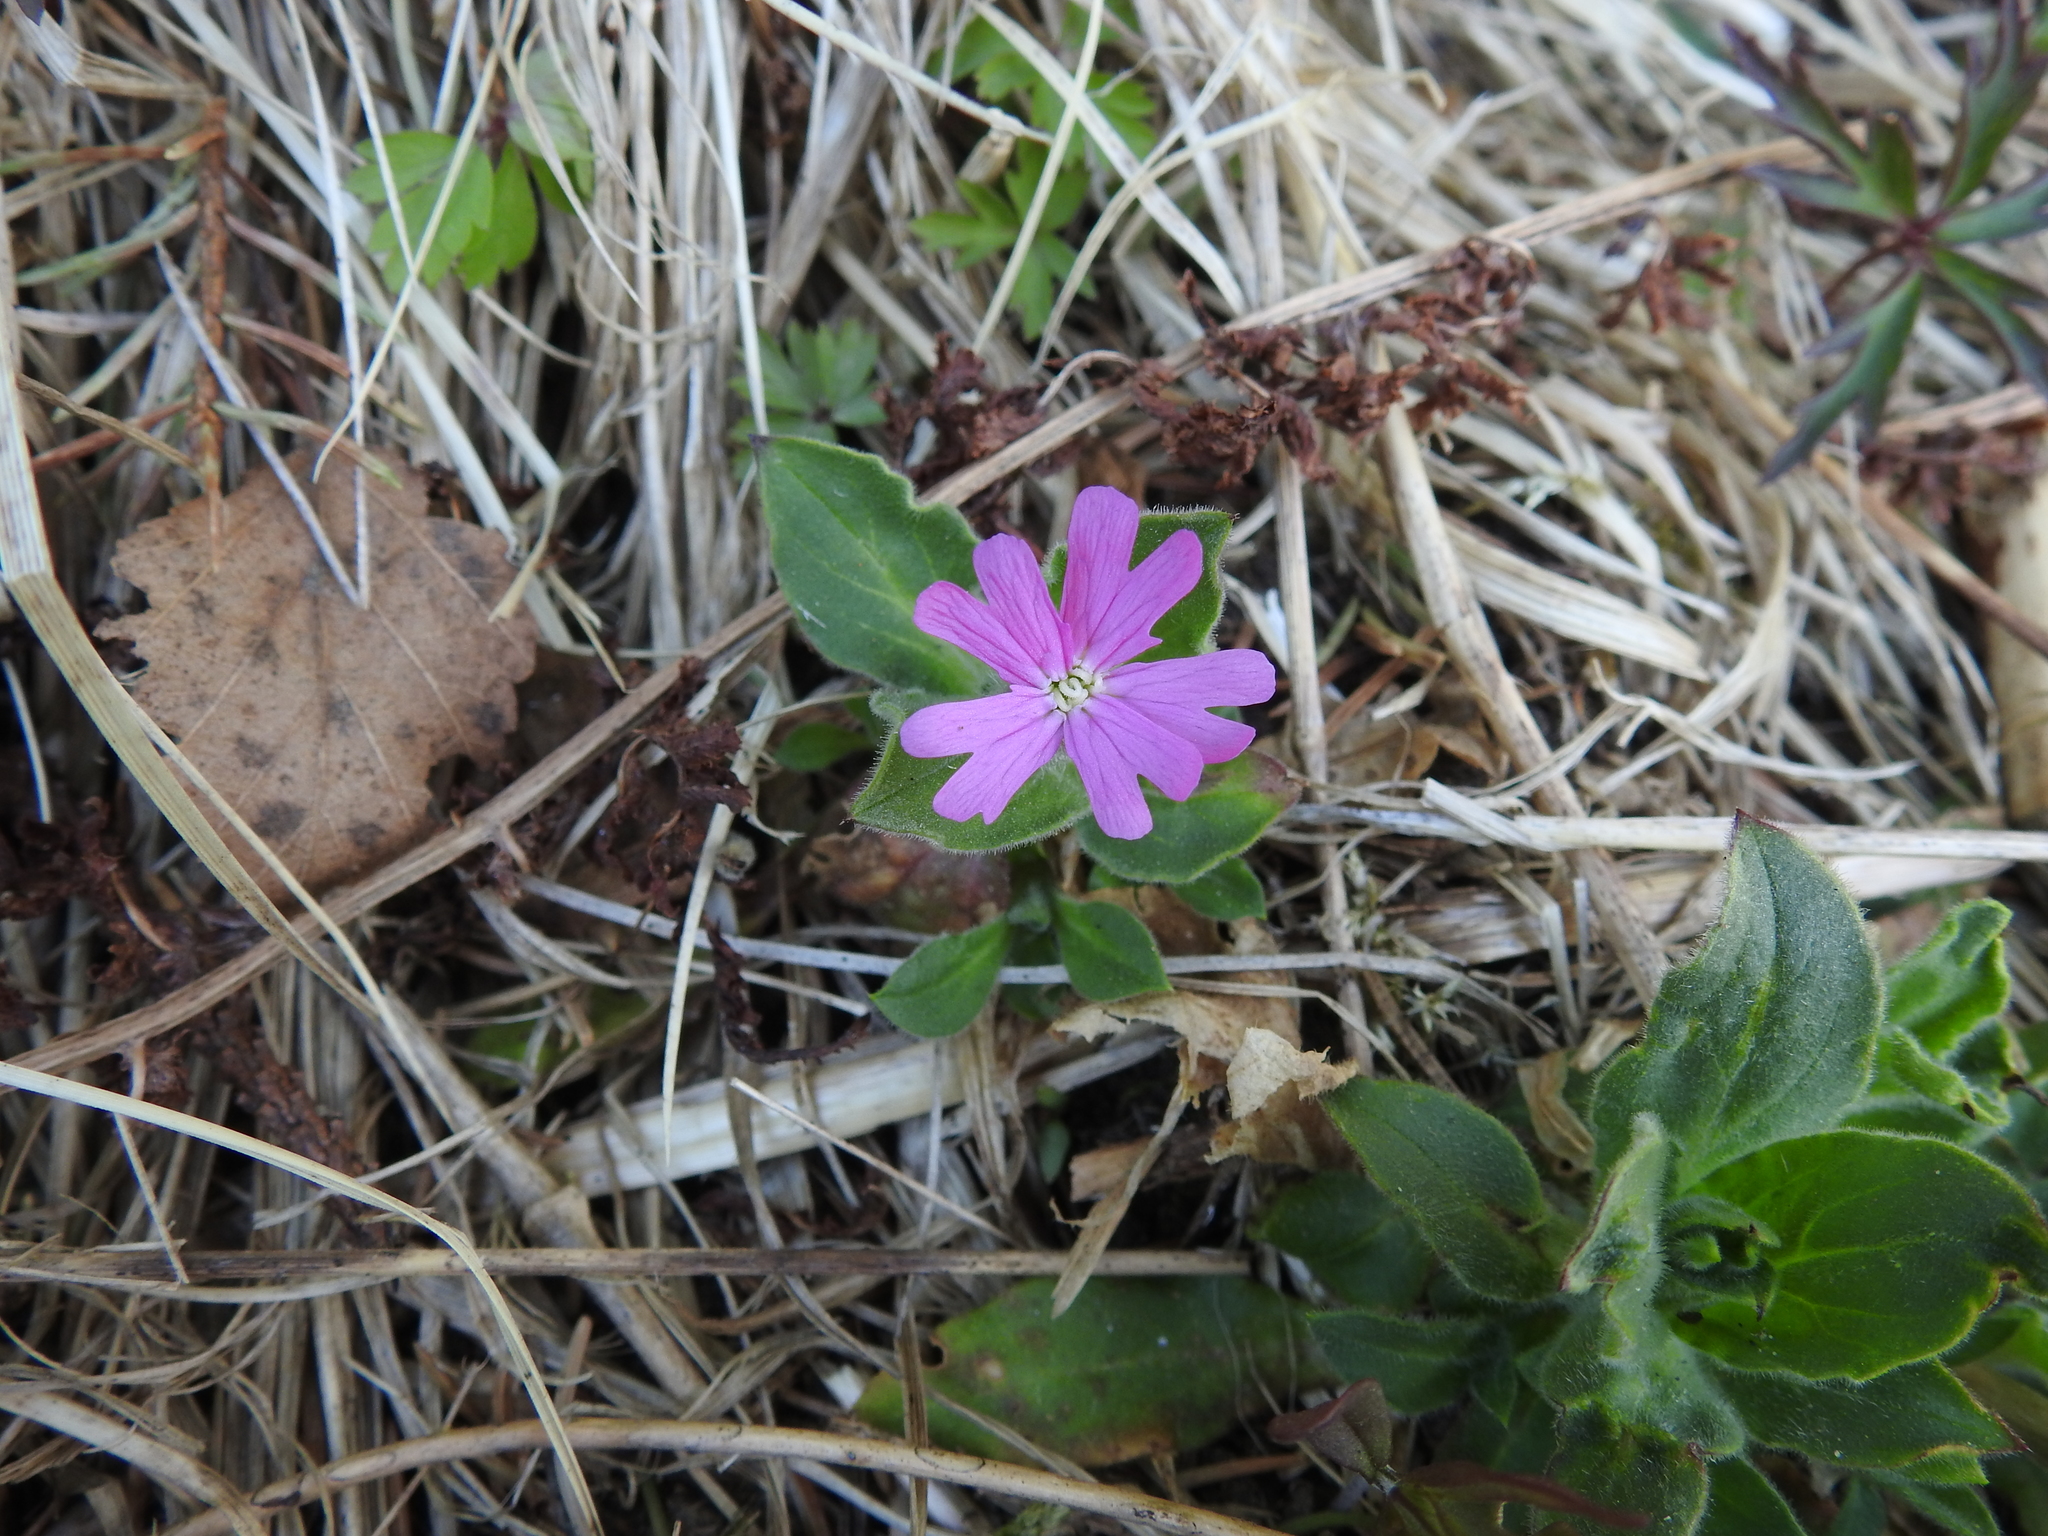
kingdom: Plantae
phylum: Tracheophyta
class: Magnoliopsida
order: Caryophyllales
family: Caryophyllaceae
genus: Silene
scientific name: Silene dioica
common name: Red campion
